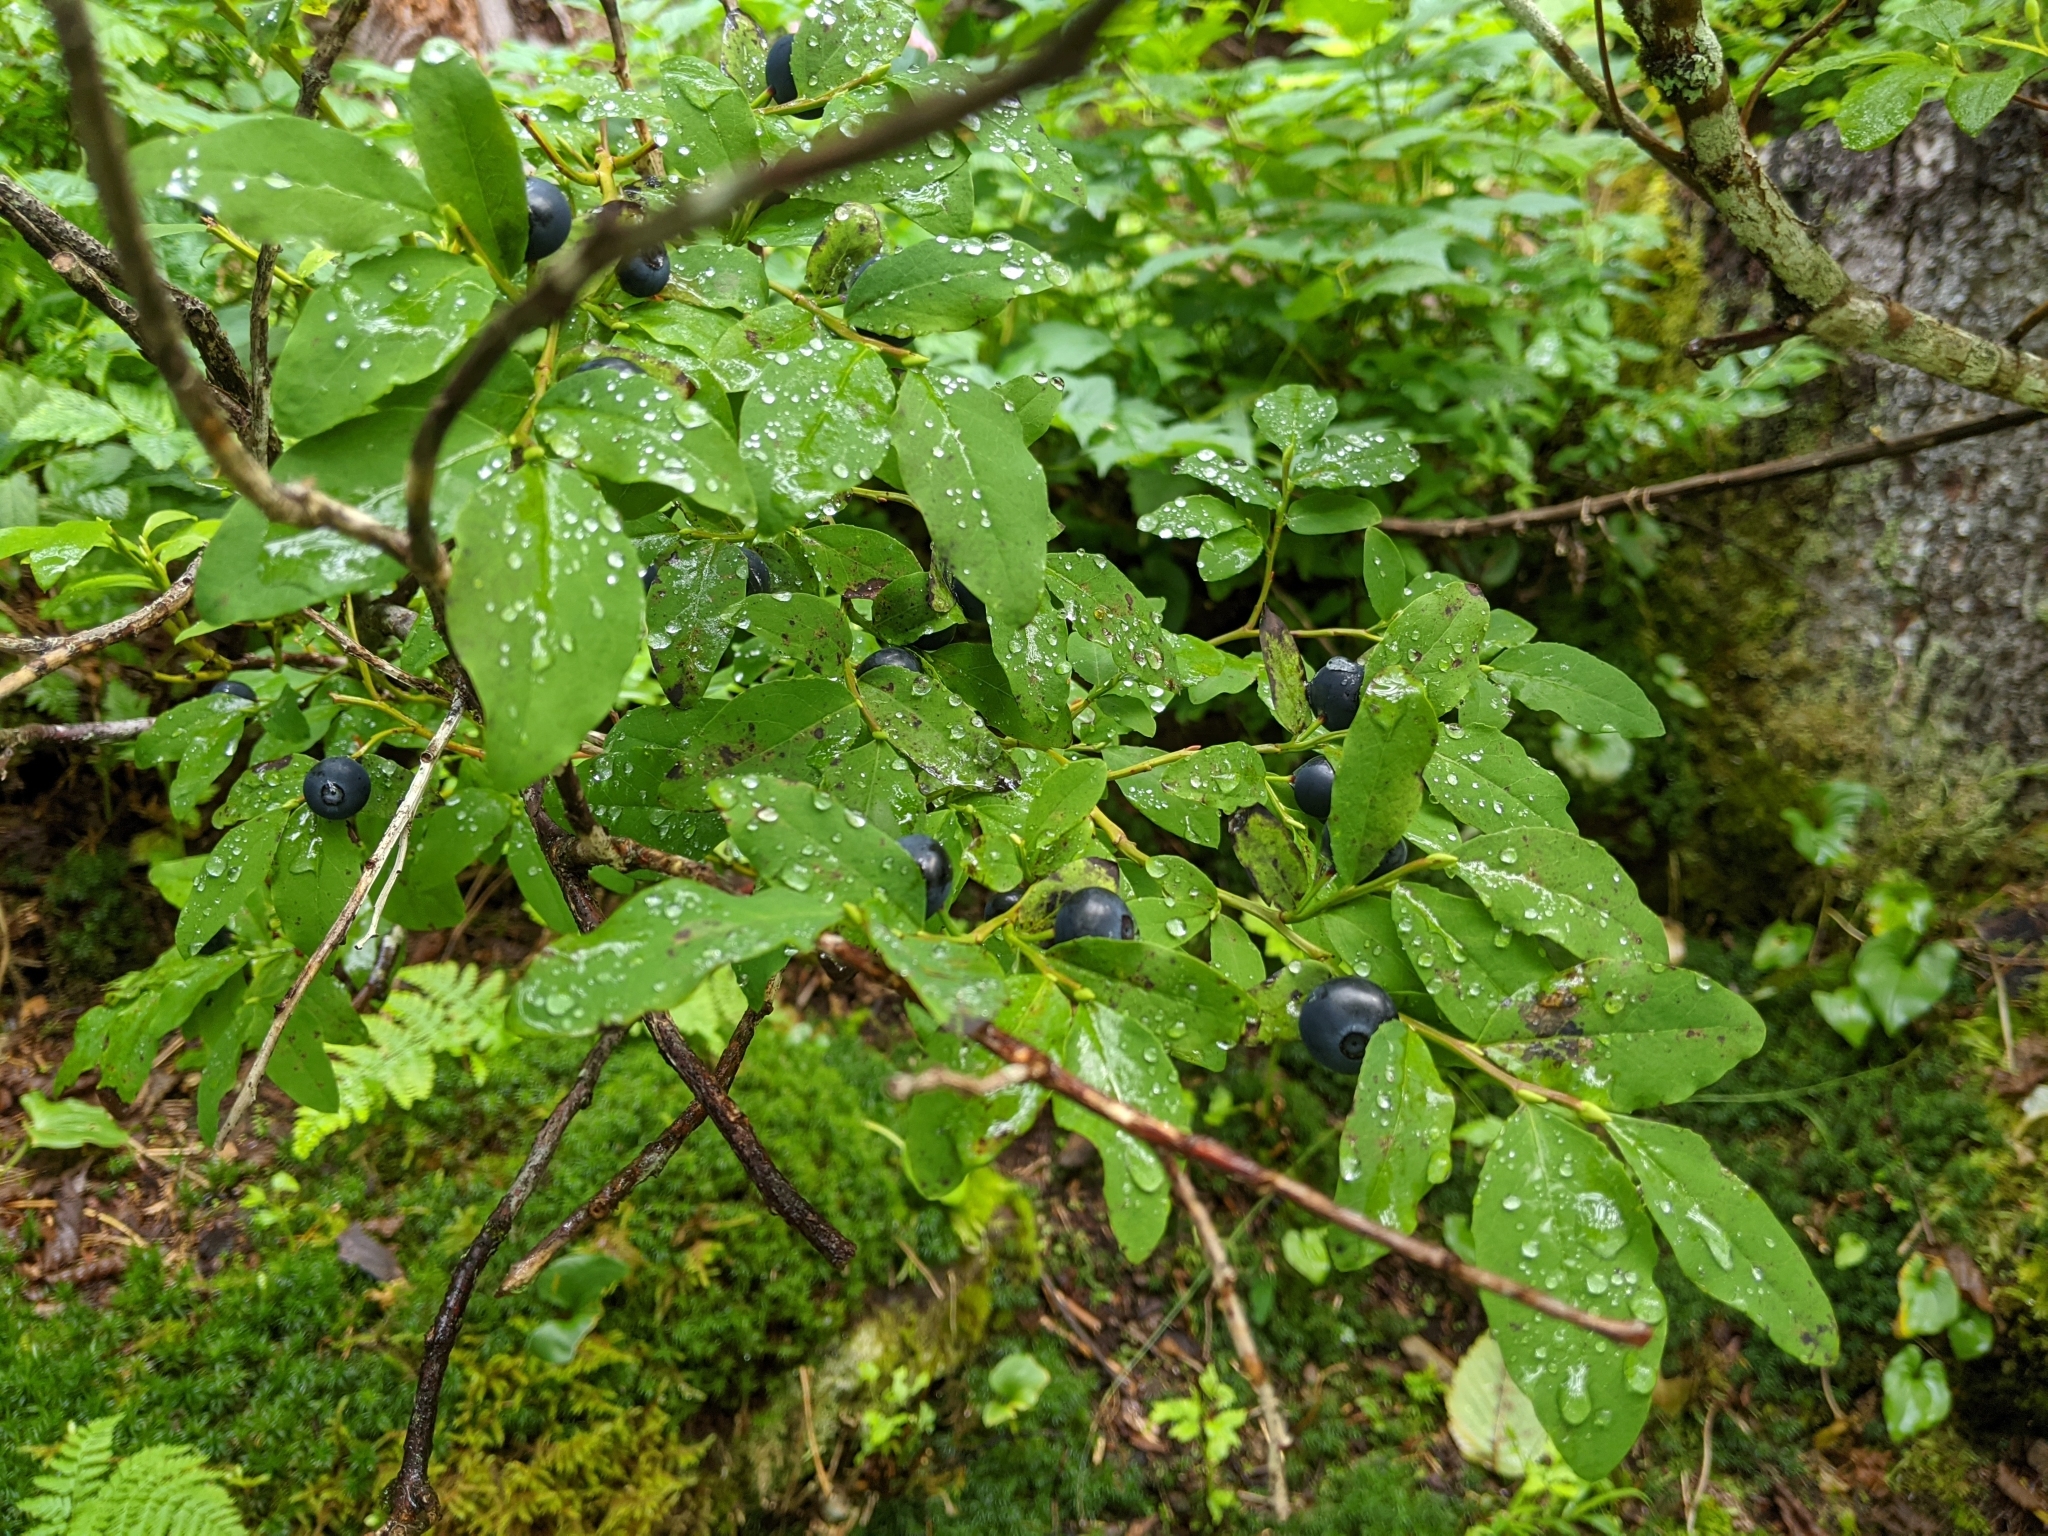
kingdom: Plantae
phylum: Tracheophyta
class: Magnoliopsida
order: Ericales
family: Ericaceae
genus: Vaccinium
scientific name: Vaccinium ovalifolium
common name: Early blueberry
